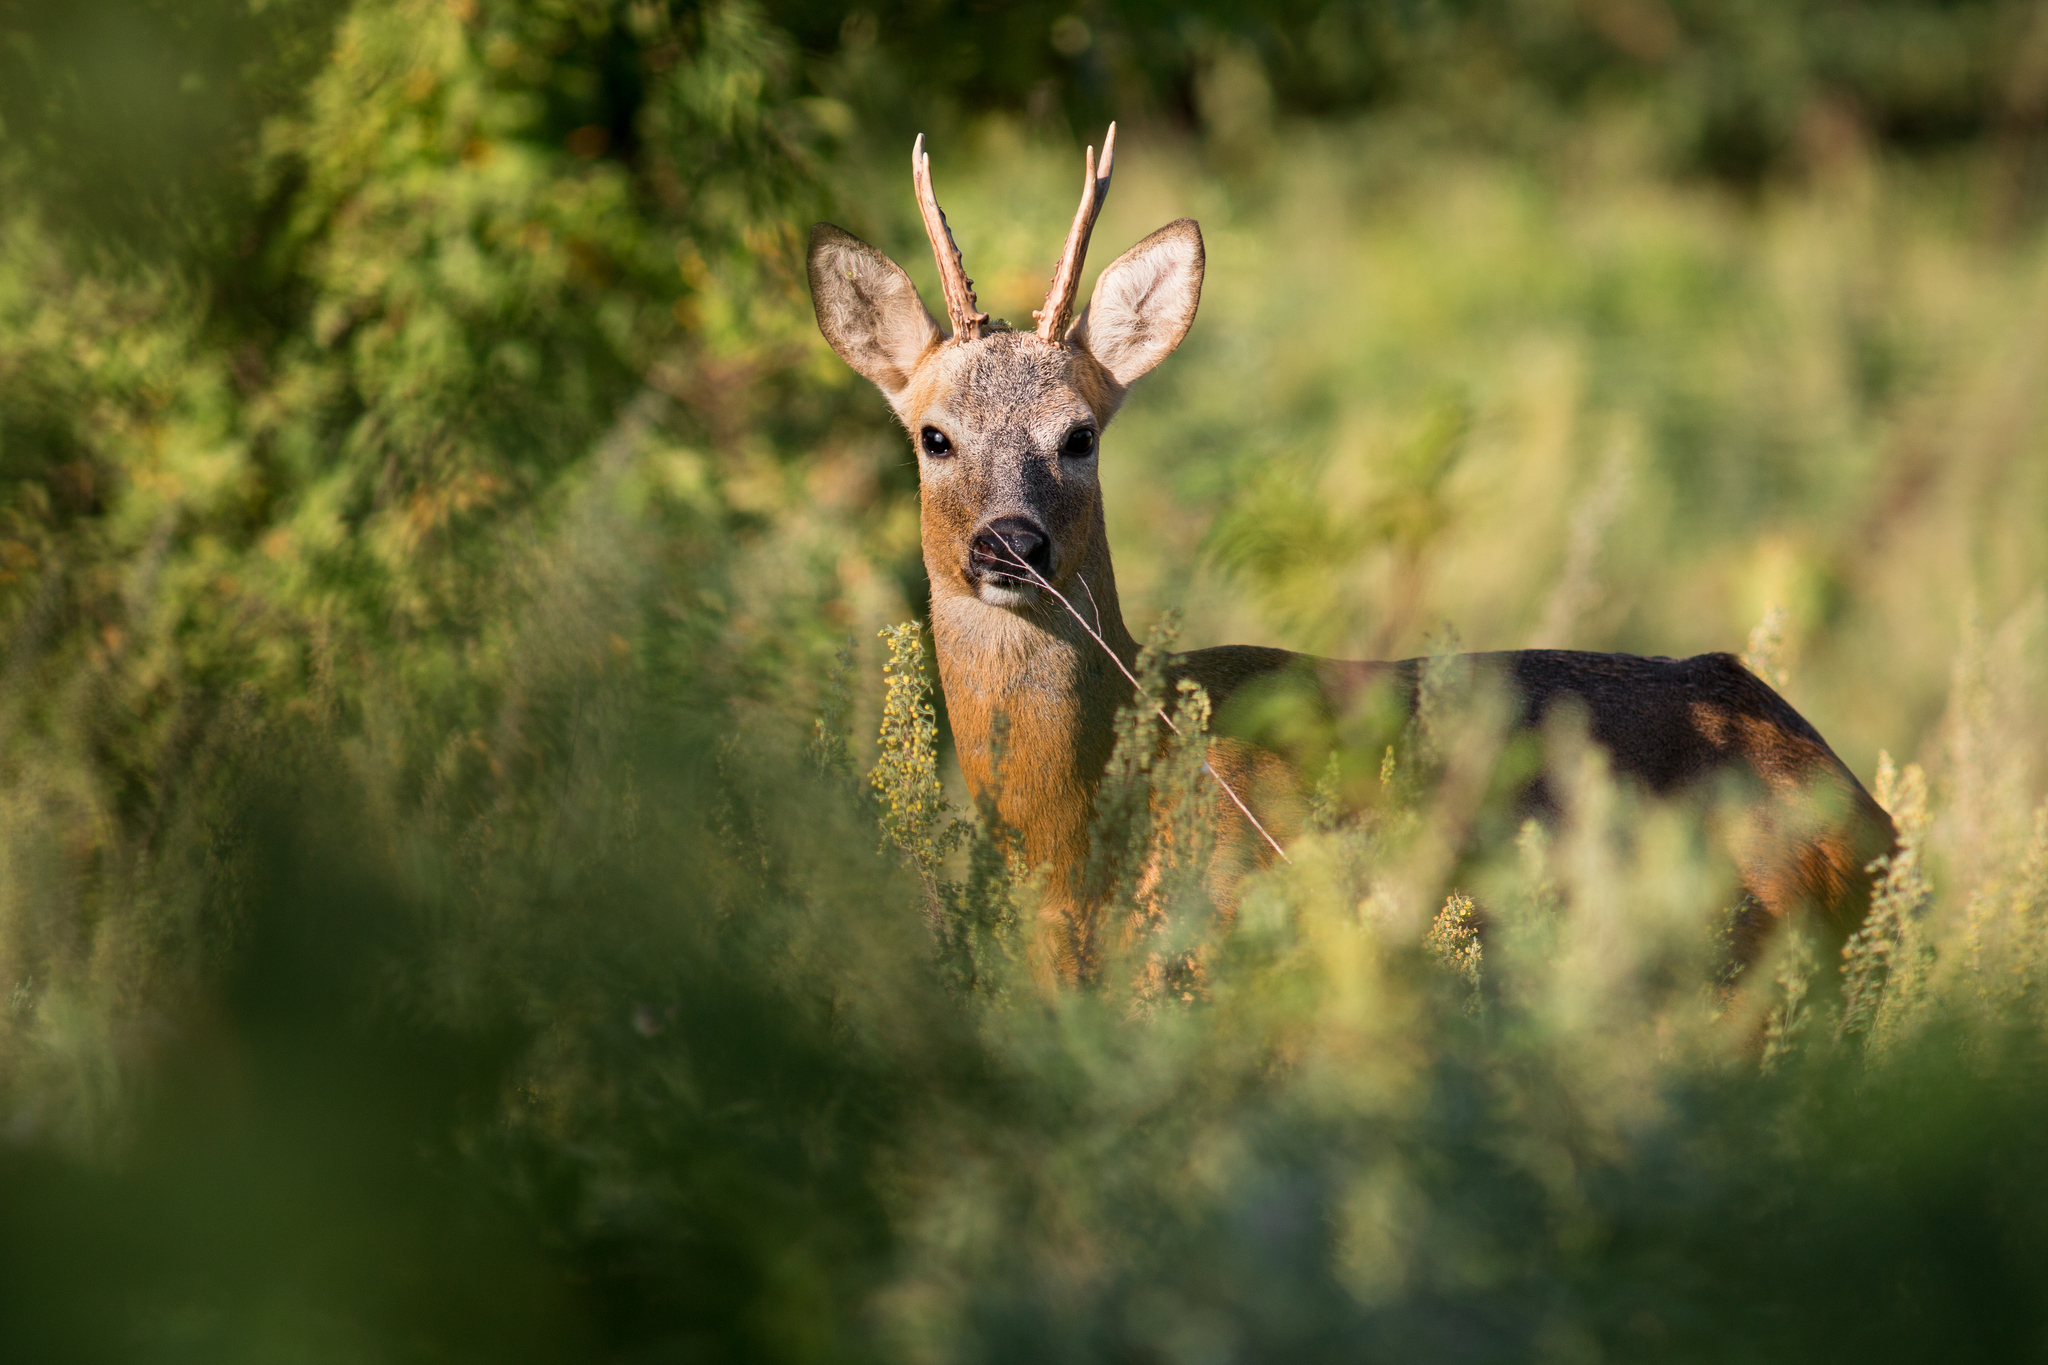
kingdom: Animalia
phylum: Chordata
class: Mammalia
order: Artiodactyla
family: Cervidae
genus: Capreolus
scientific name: Capreolus pygargus
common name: Siberian roe
